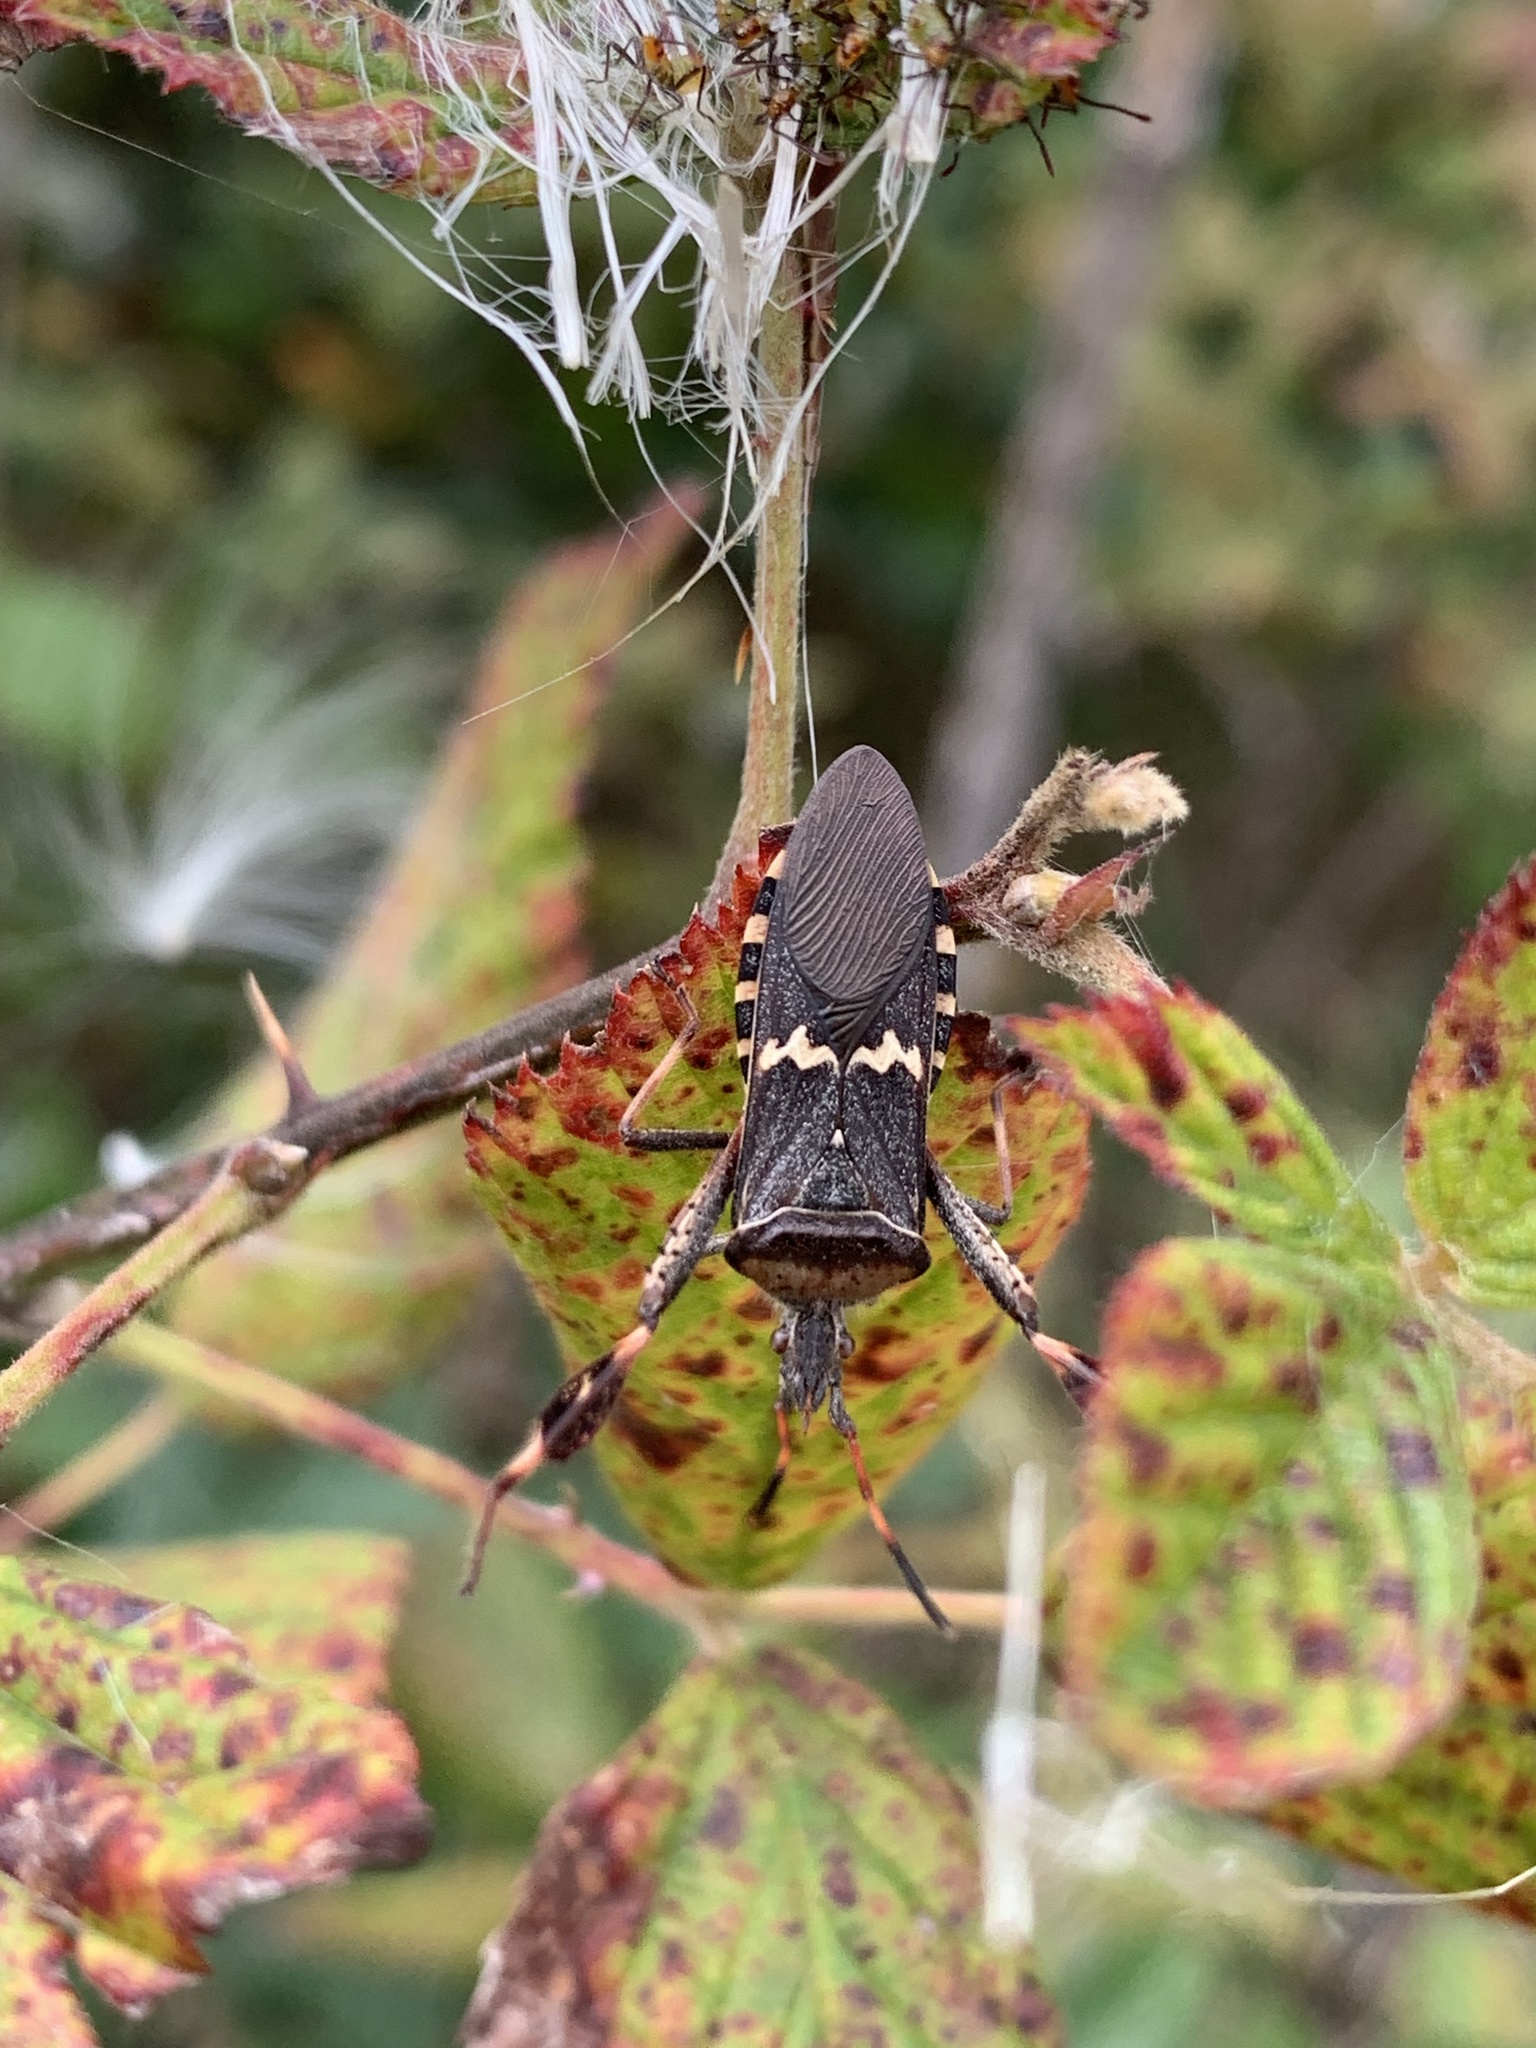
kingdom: Animalia
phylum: Arthropoda
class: Insecta
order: Hemiptera
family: Coreidae
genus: Leptoglossus
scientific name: Leptoglossus clypealis
